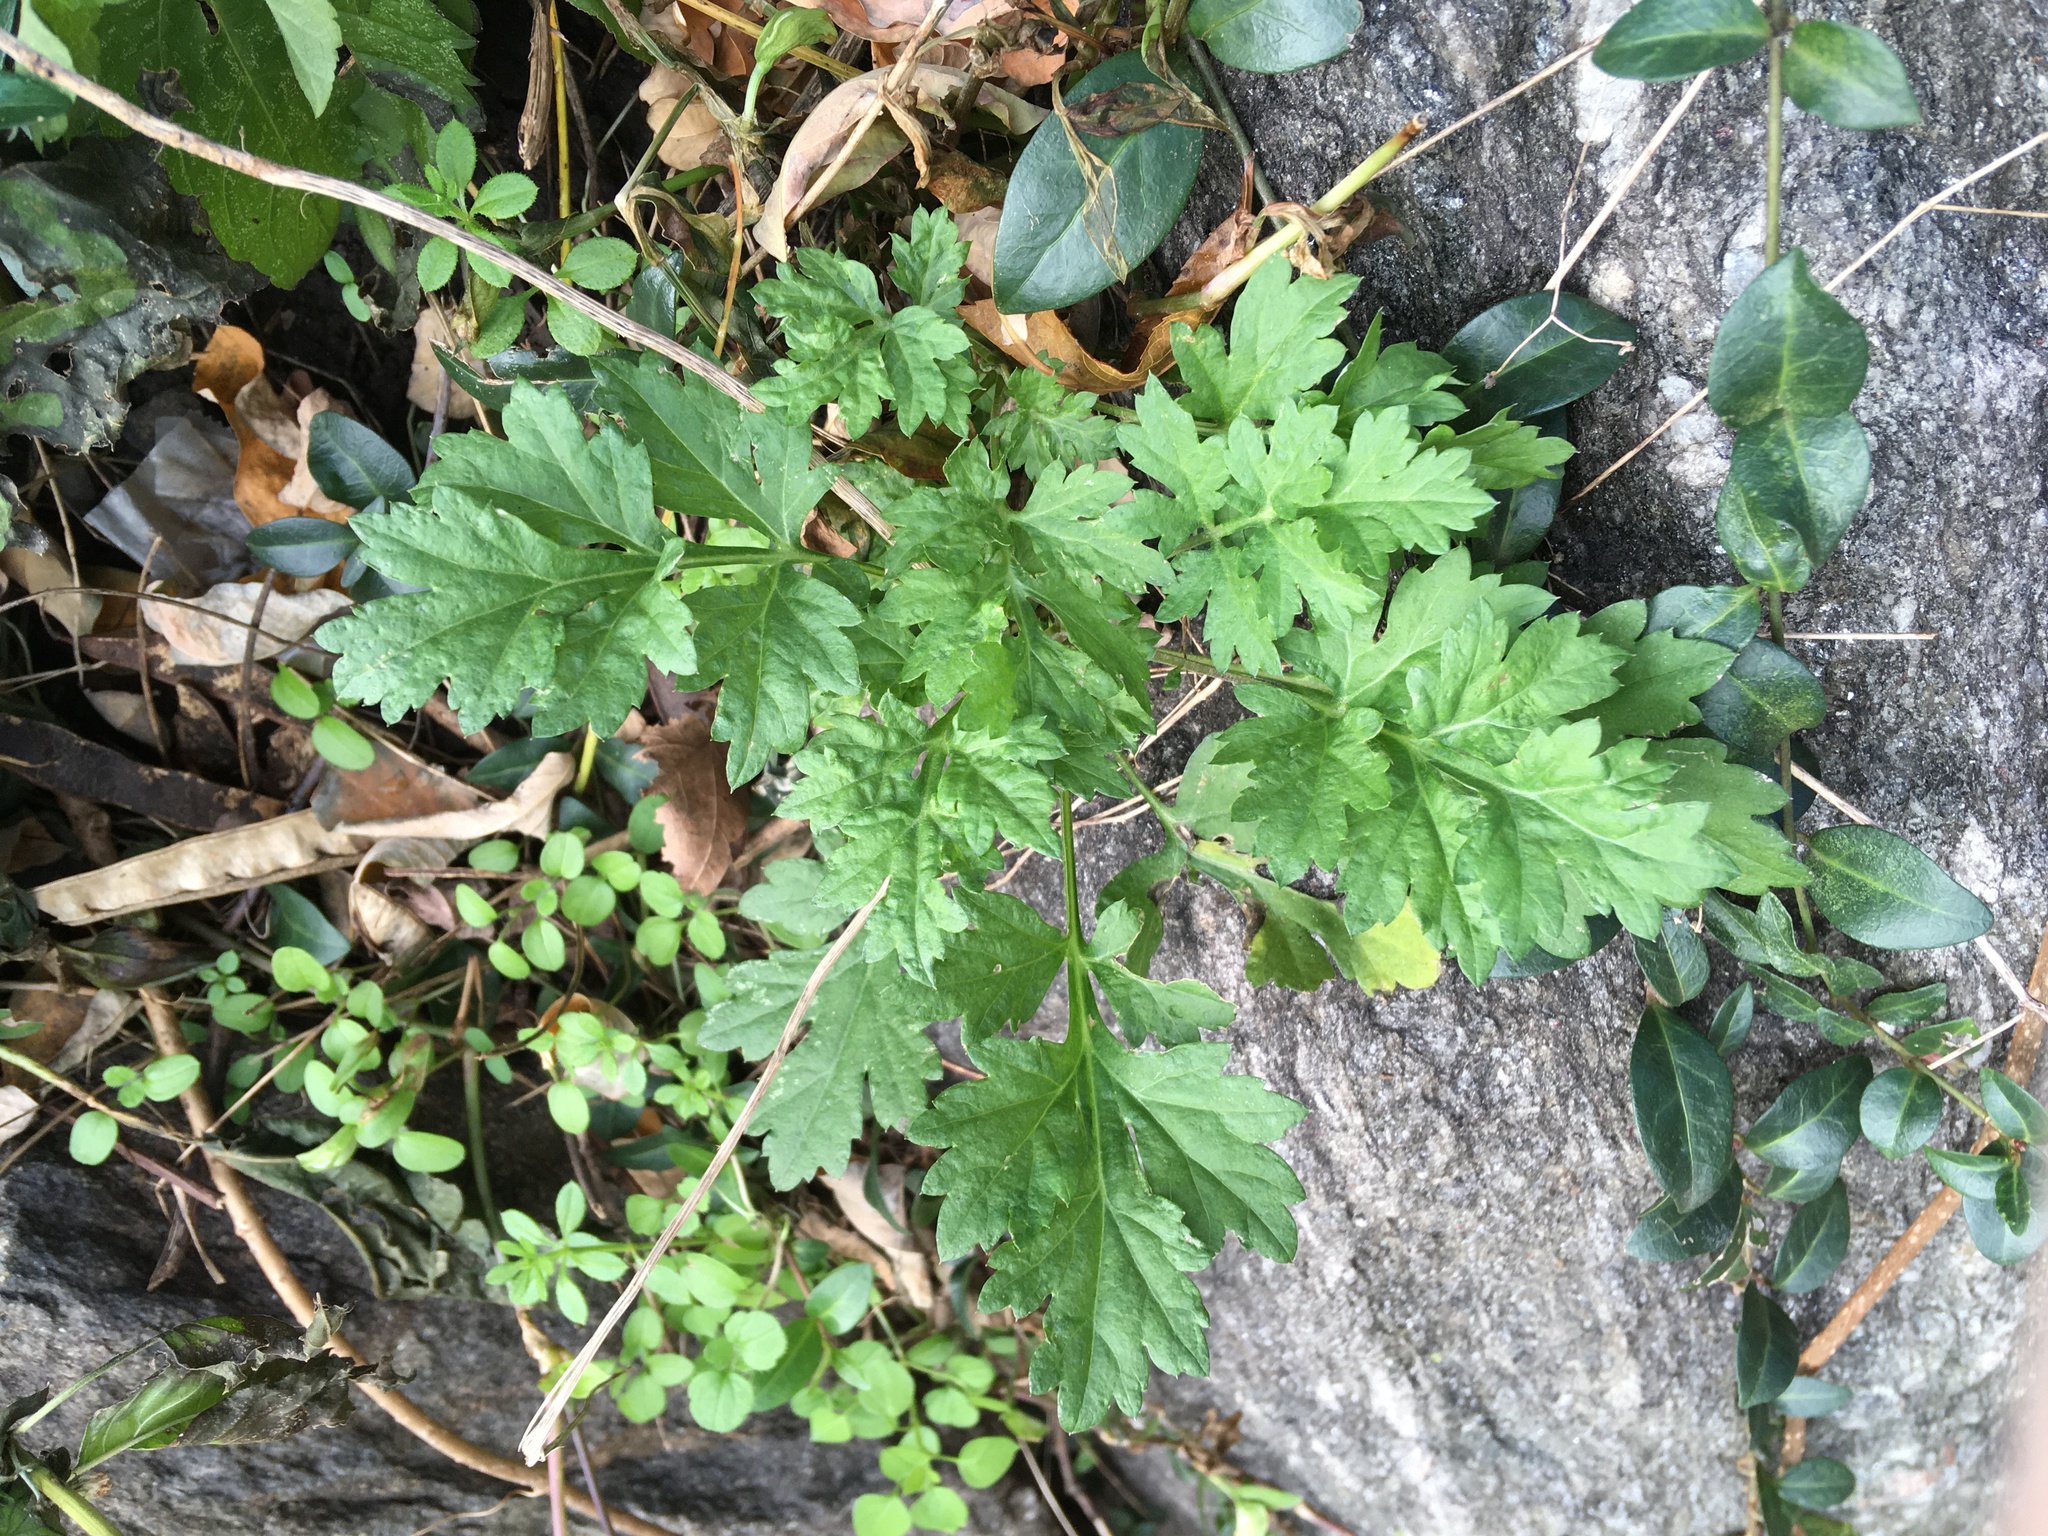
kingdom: Plantae
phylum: Tracheophyta
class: Magnoliopsida
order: Asterales
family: Asteraceae
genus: Artemisia
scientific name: Artemisia vulgaris
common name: Mugwort
